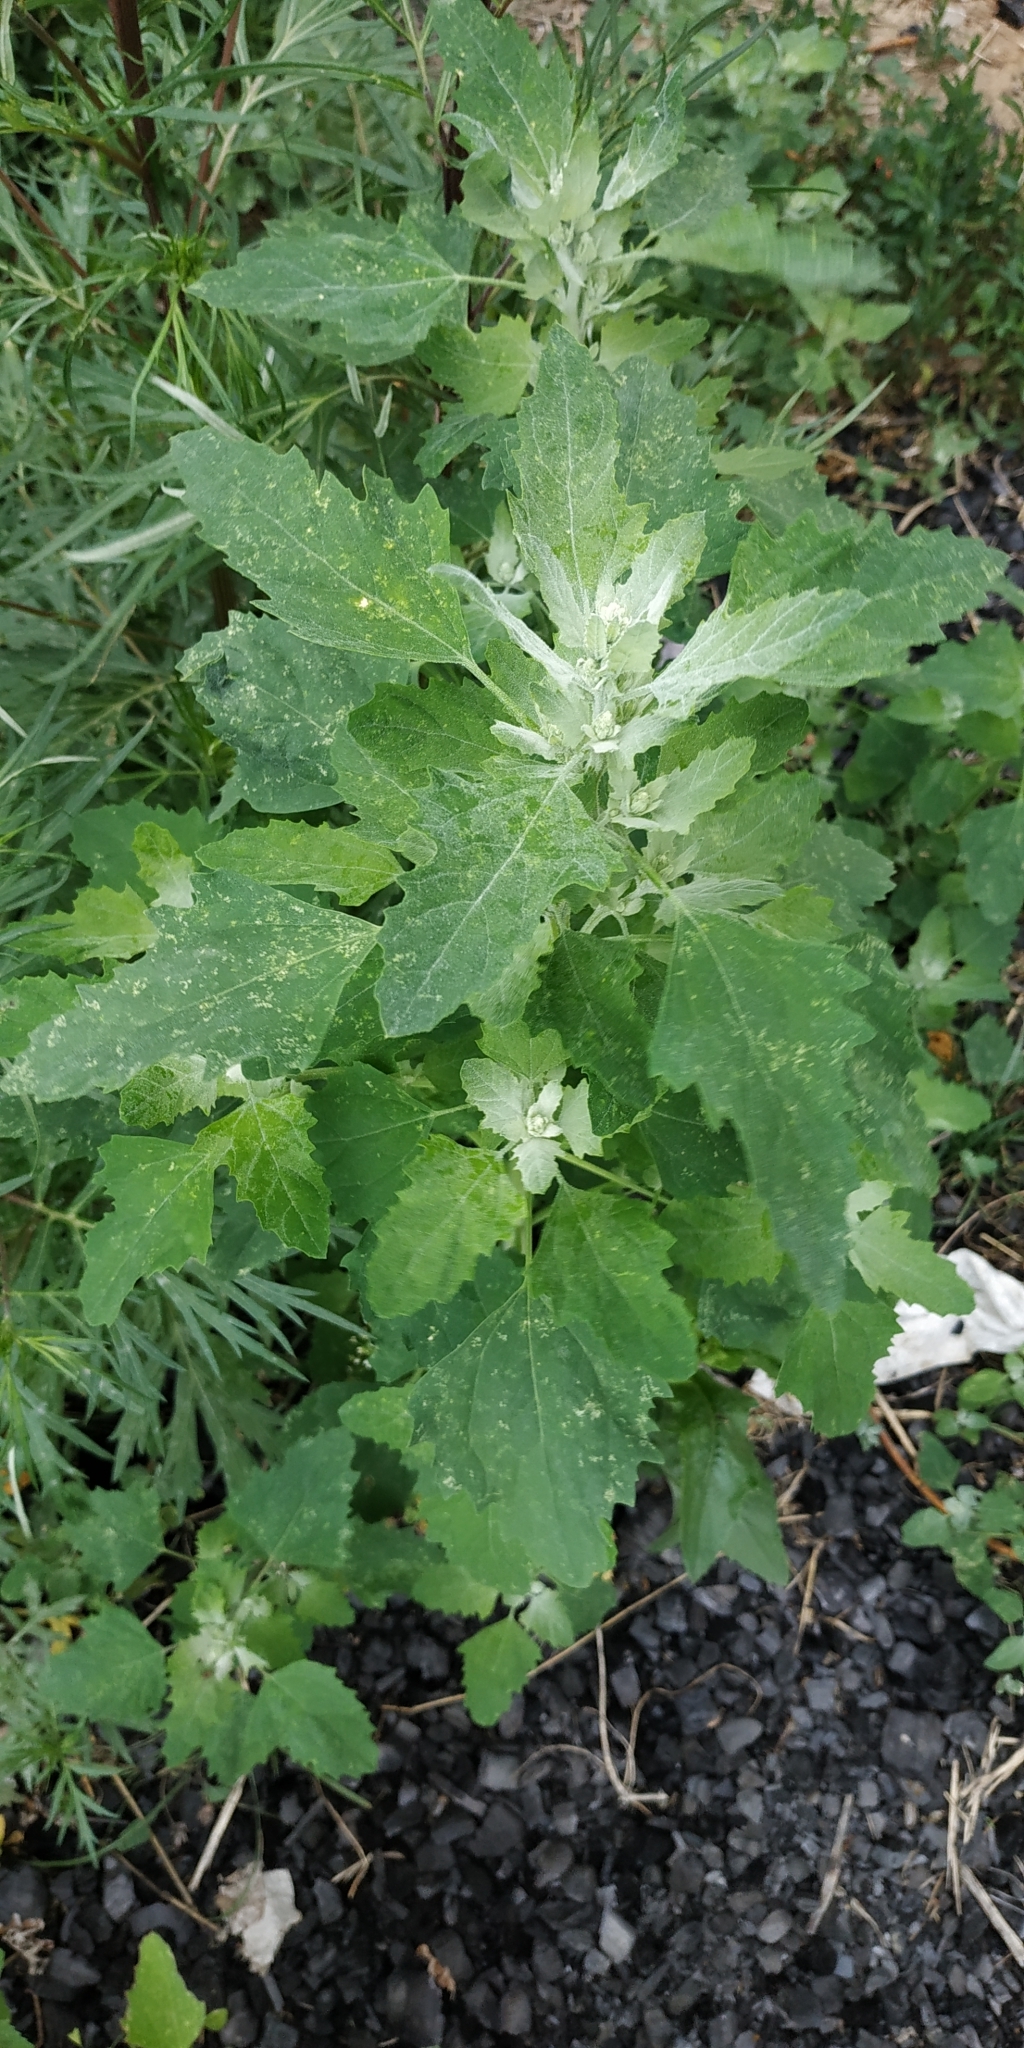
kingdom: Plantae
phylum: Tracheophyta
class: Magnoliopsida
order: Caryophyllales
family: Amaranthaceae
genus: Chenopodium
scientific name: Chenopodium album
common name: Fat-hen
